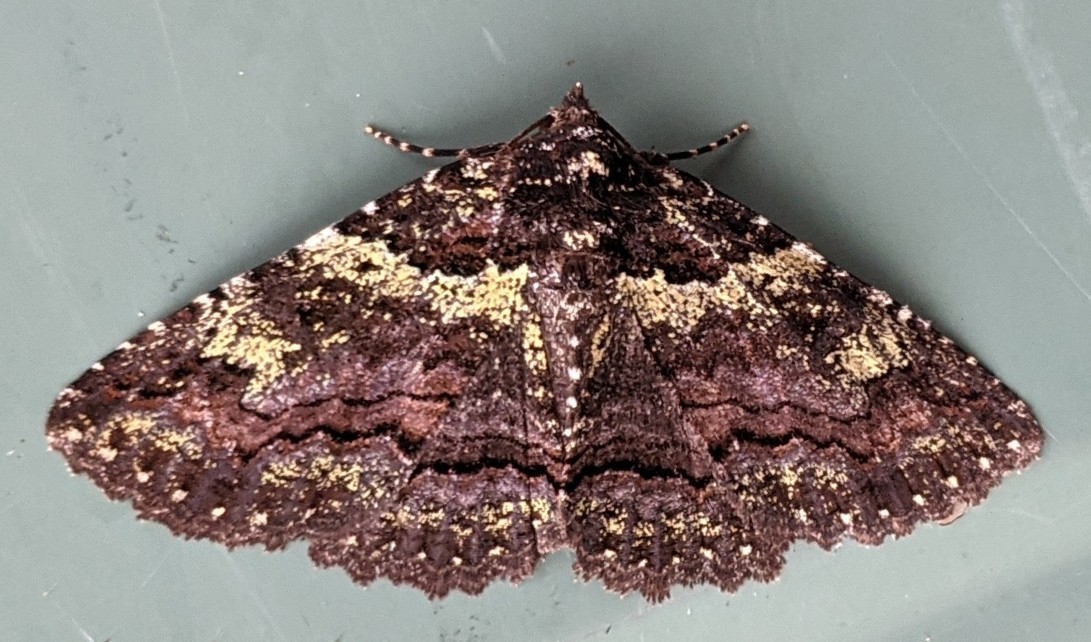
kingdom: Animalia
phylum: Arthropoda
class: Insecta
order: Lepidoptera
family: Erebidae
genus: Zale
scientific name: Zale aeruginosa
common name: Green-dusted zale moth
